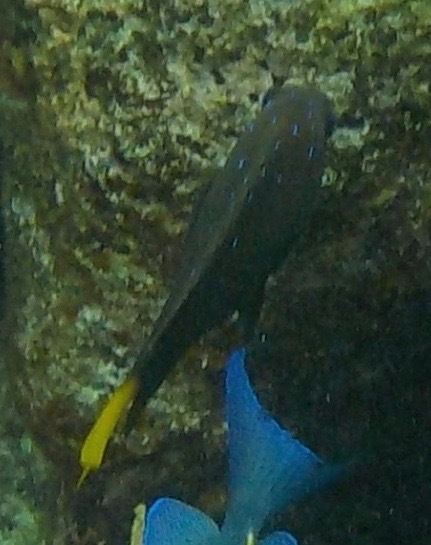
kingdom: Animalia
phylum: Chordata
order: Perciformes
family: Pomacentridae
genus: Microspathodon
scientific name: Microspathodon chrysurus
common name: Yellowtail damselfish
